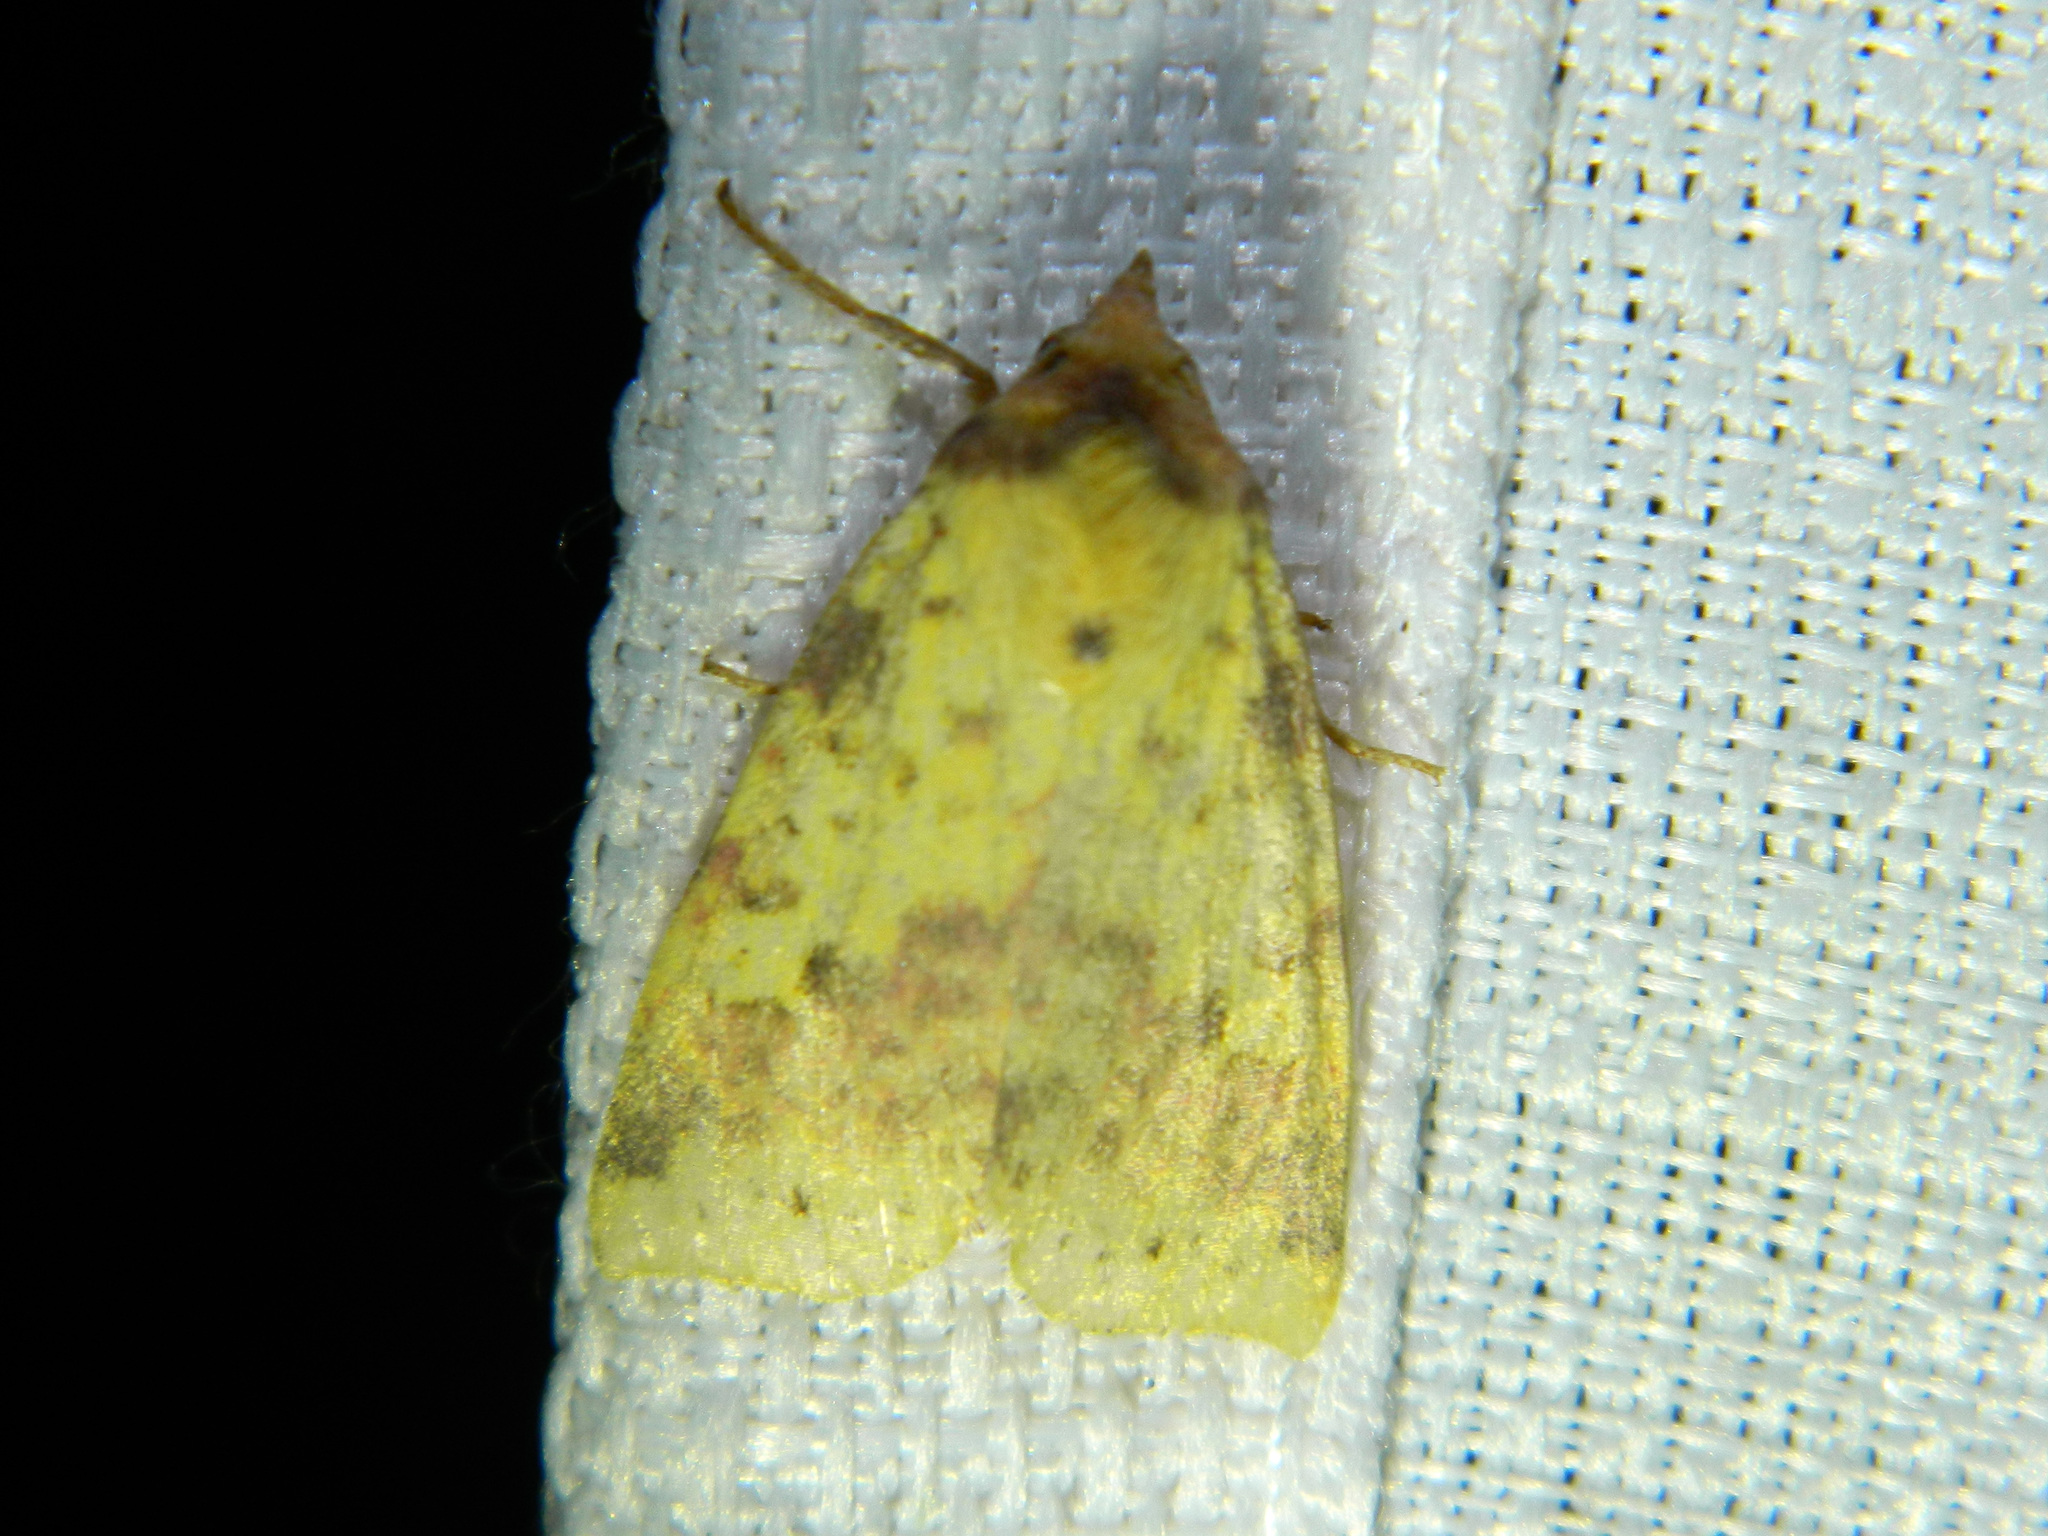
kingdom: Animalia
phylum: Arthropoda
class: Insecta
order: Lepidoptera
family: Noctuidae
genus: Xanthia
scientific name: Xanthia tatago
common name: Pink-banded sallow
